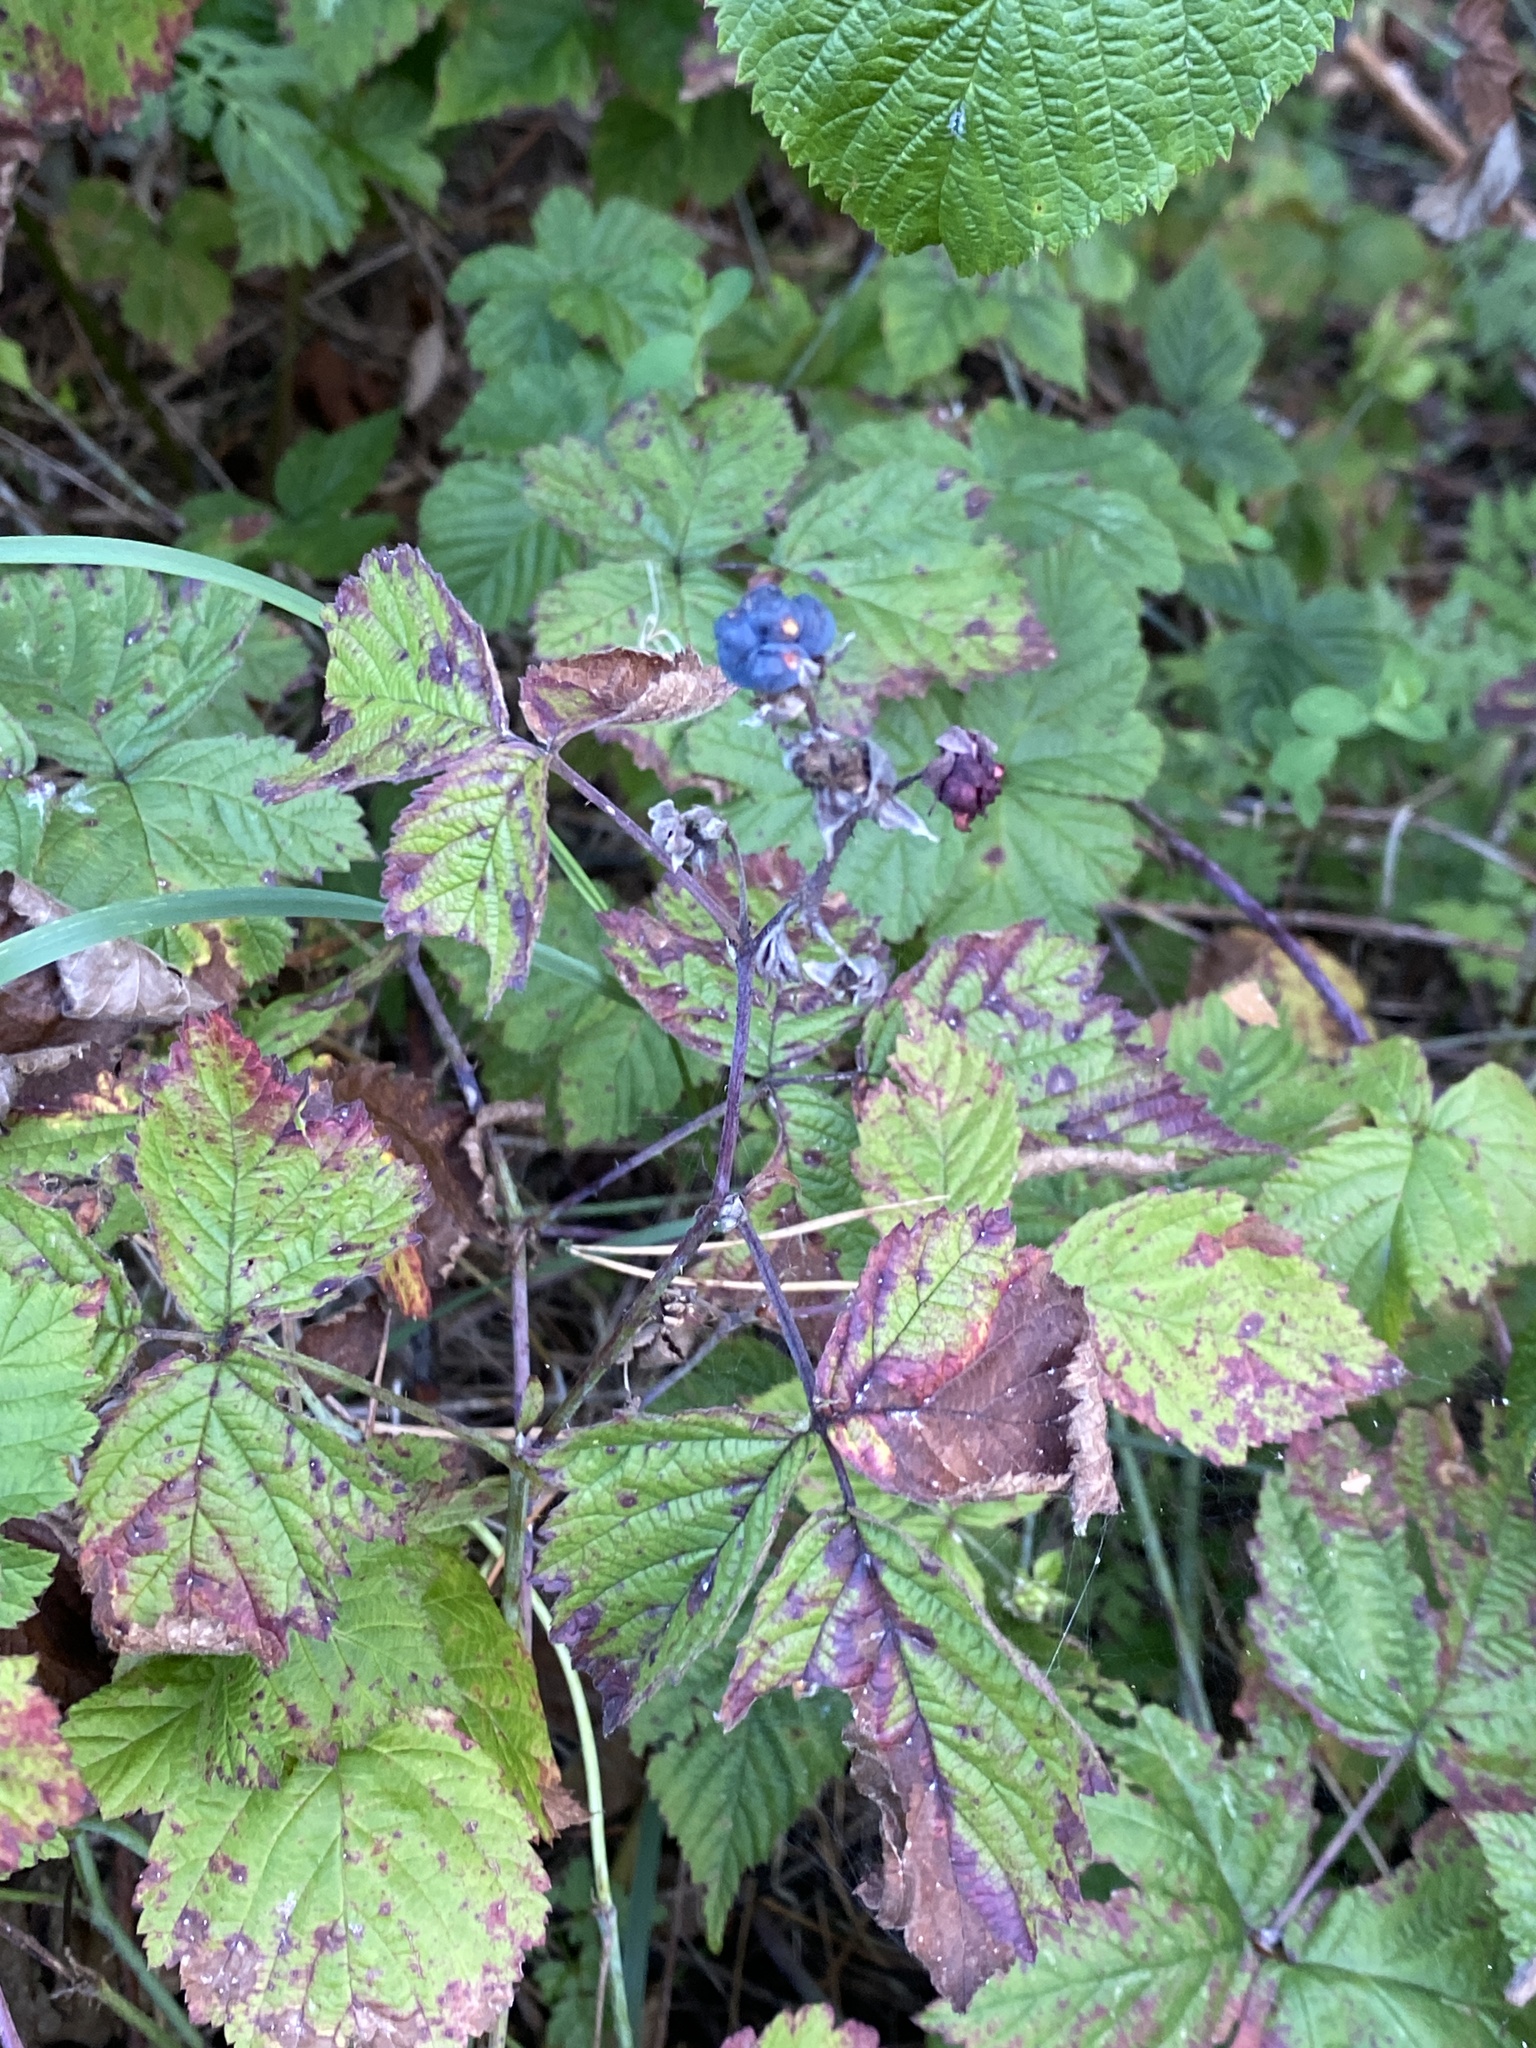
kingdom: Plantae
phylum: Tracheophyta
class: Magnoliopsida
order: Rosales
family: Rosaceae
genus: Rubus
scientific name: Rubus caesius
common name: Dewberry
